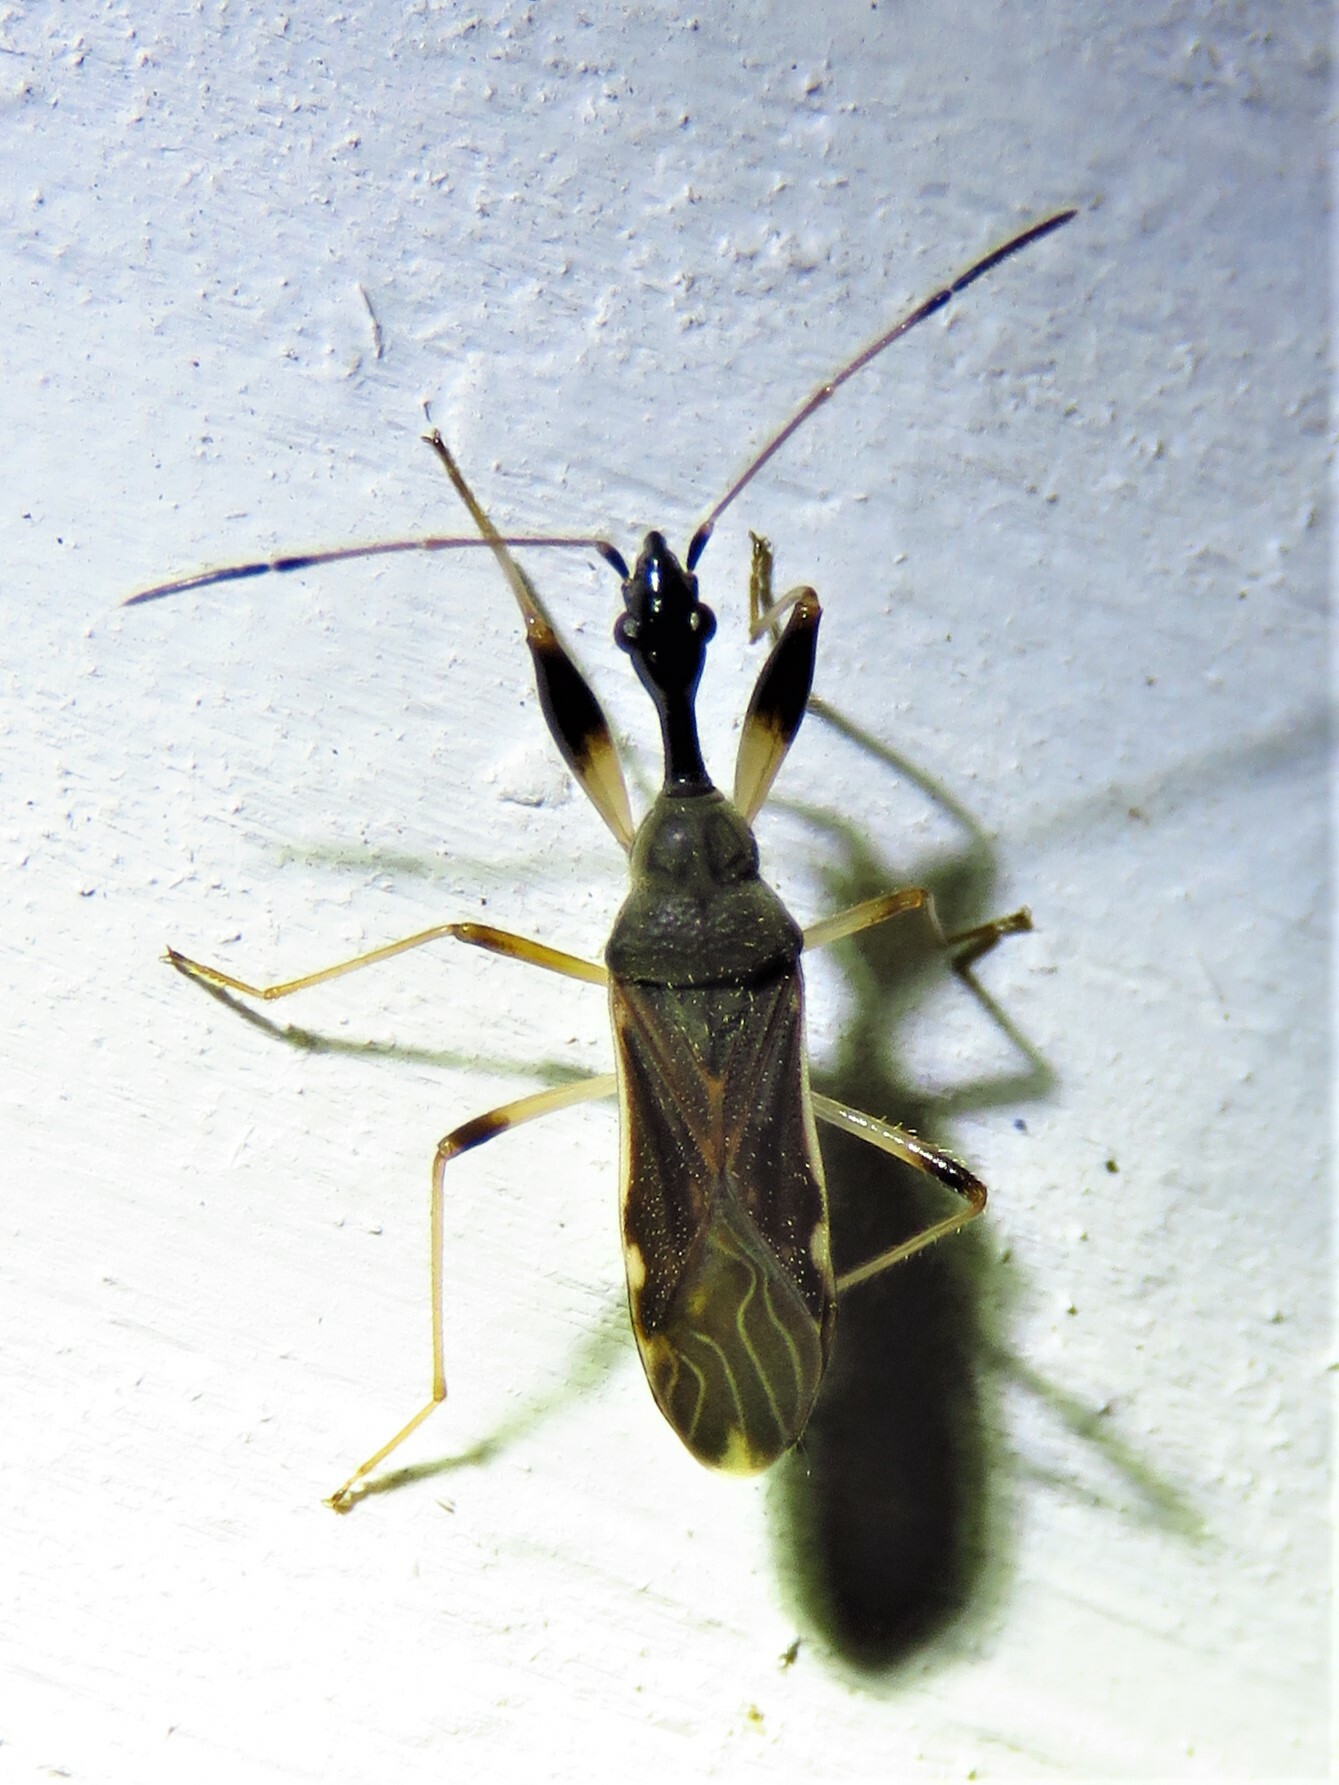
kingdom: Animalia
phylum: Arthropoda
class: Insecta
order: Hemiptera
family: Rhyparochromidae
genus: Myodocha
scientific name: Myodocha serripes
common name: Long-necked seed bug
